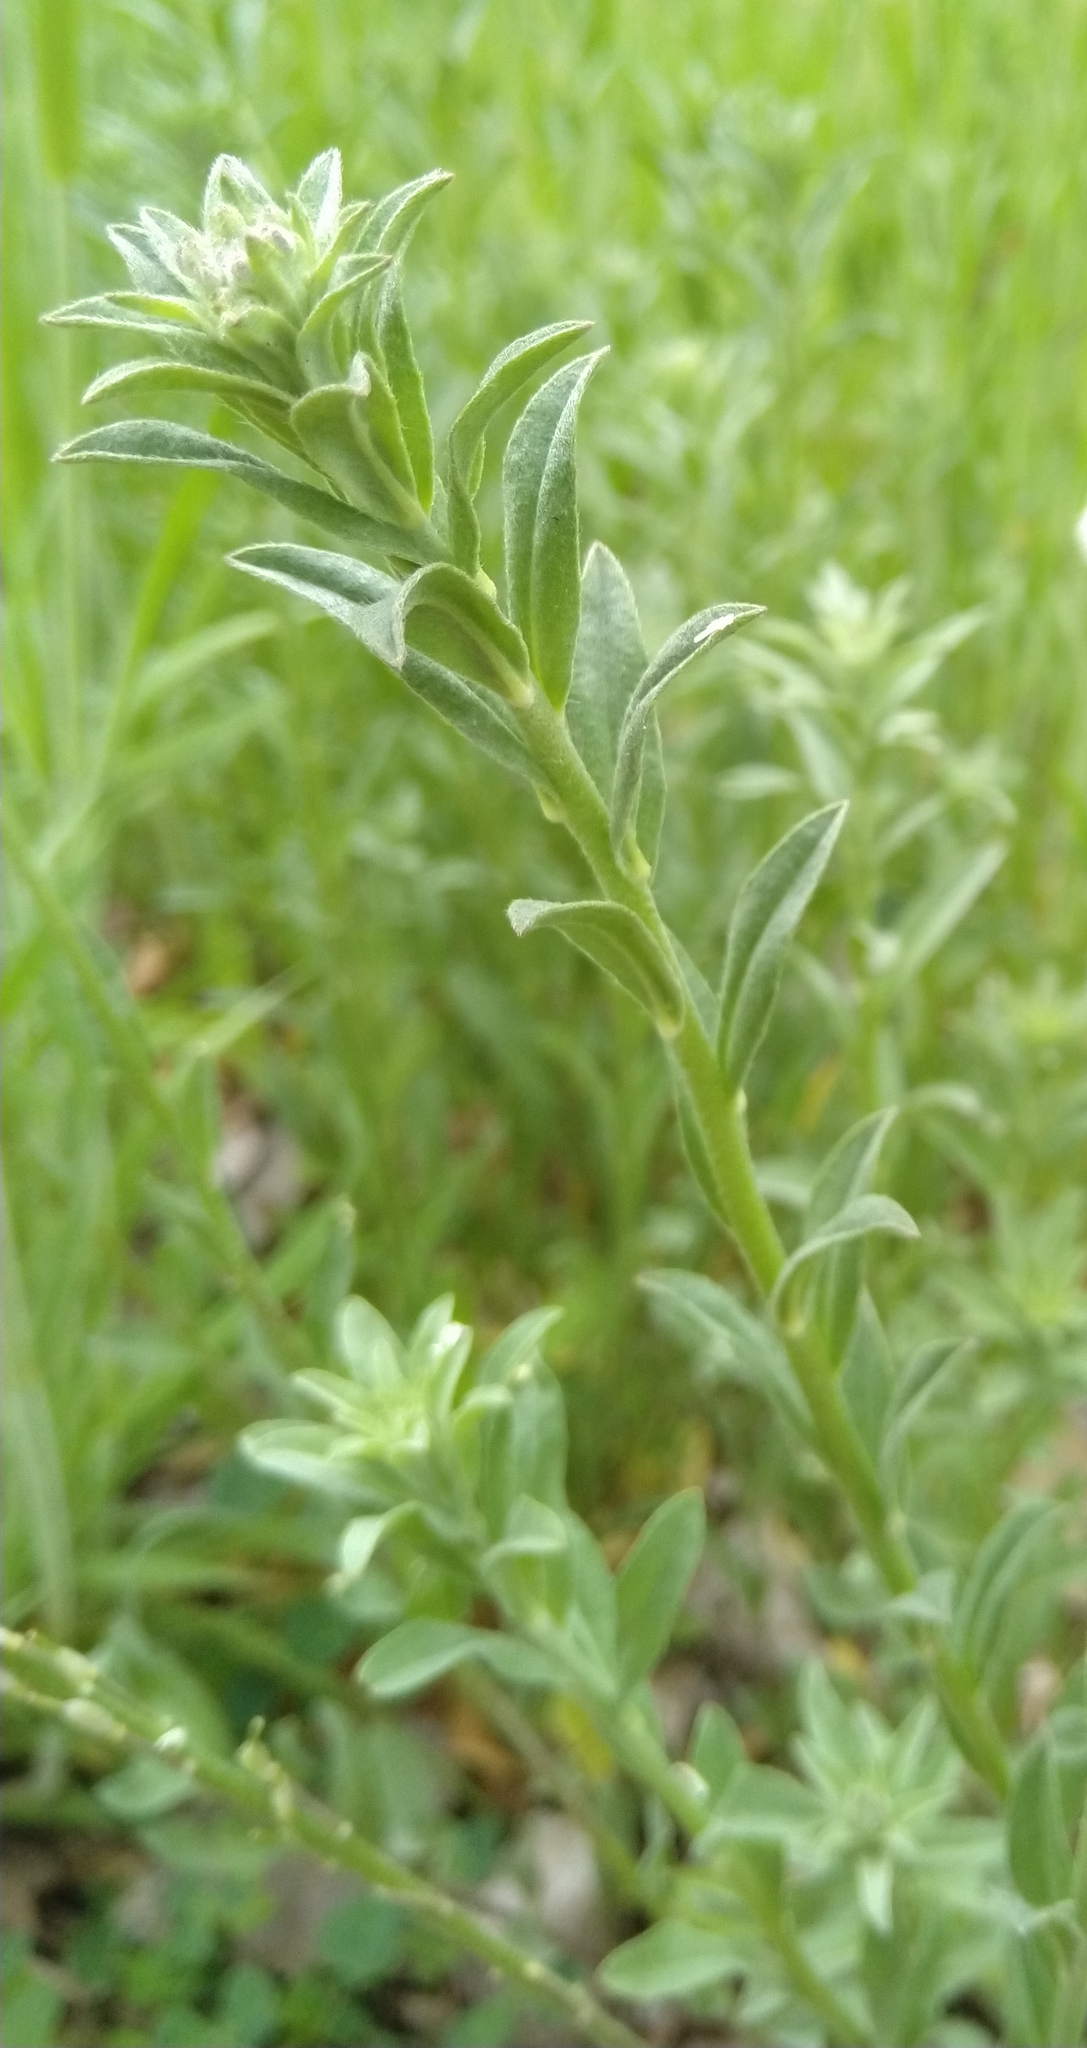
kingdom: Plantae
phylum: Tracheophyta
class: Magnoliopsida
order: Brassicales
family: Brassicaceae
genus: Berteroa
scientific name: Berteroa incana
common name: Hoary alison
